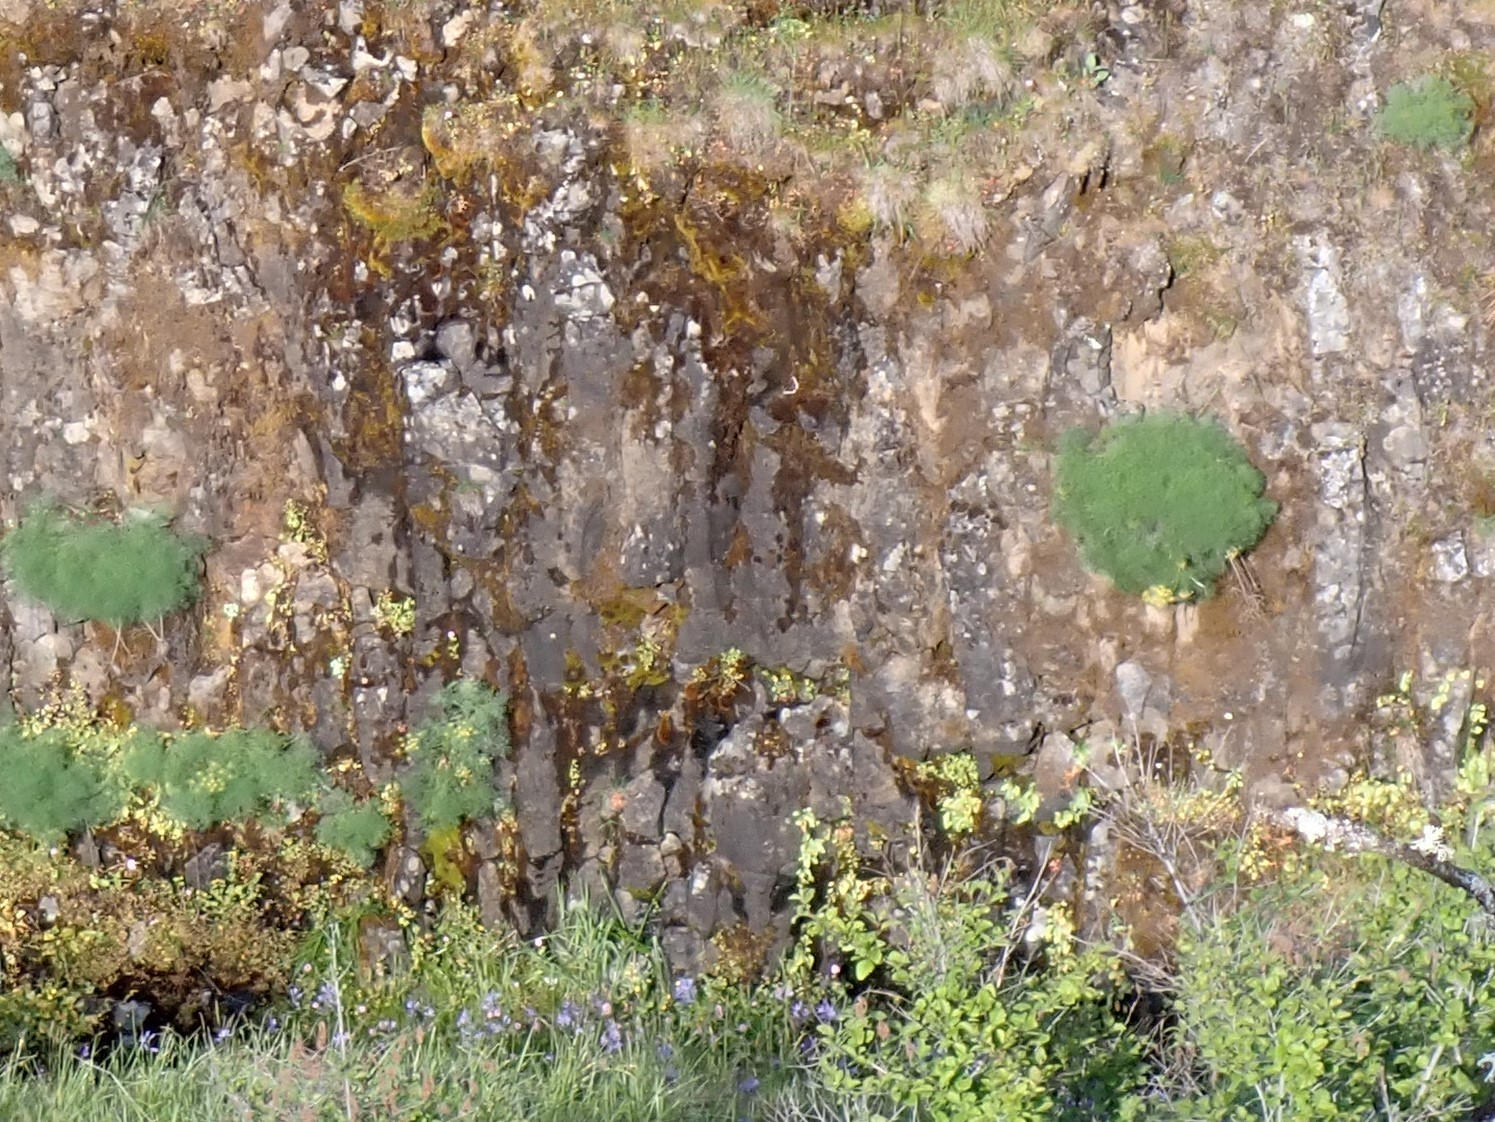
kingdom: Animalia
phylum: Arthropoda
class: Insecta
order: Lepidoptera
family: Nymphalidae
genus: Nymphalis
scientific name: Nymphalis antiopa
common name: Camberwell beauty
